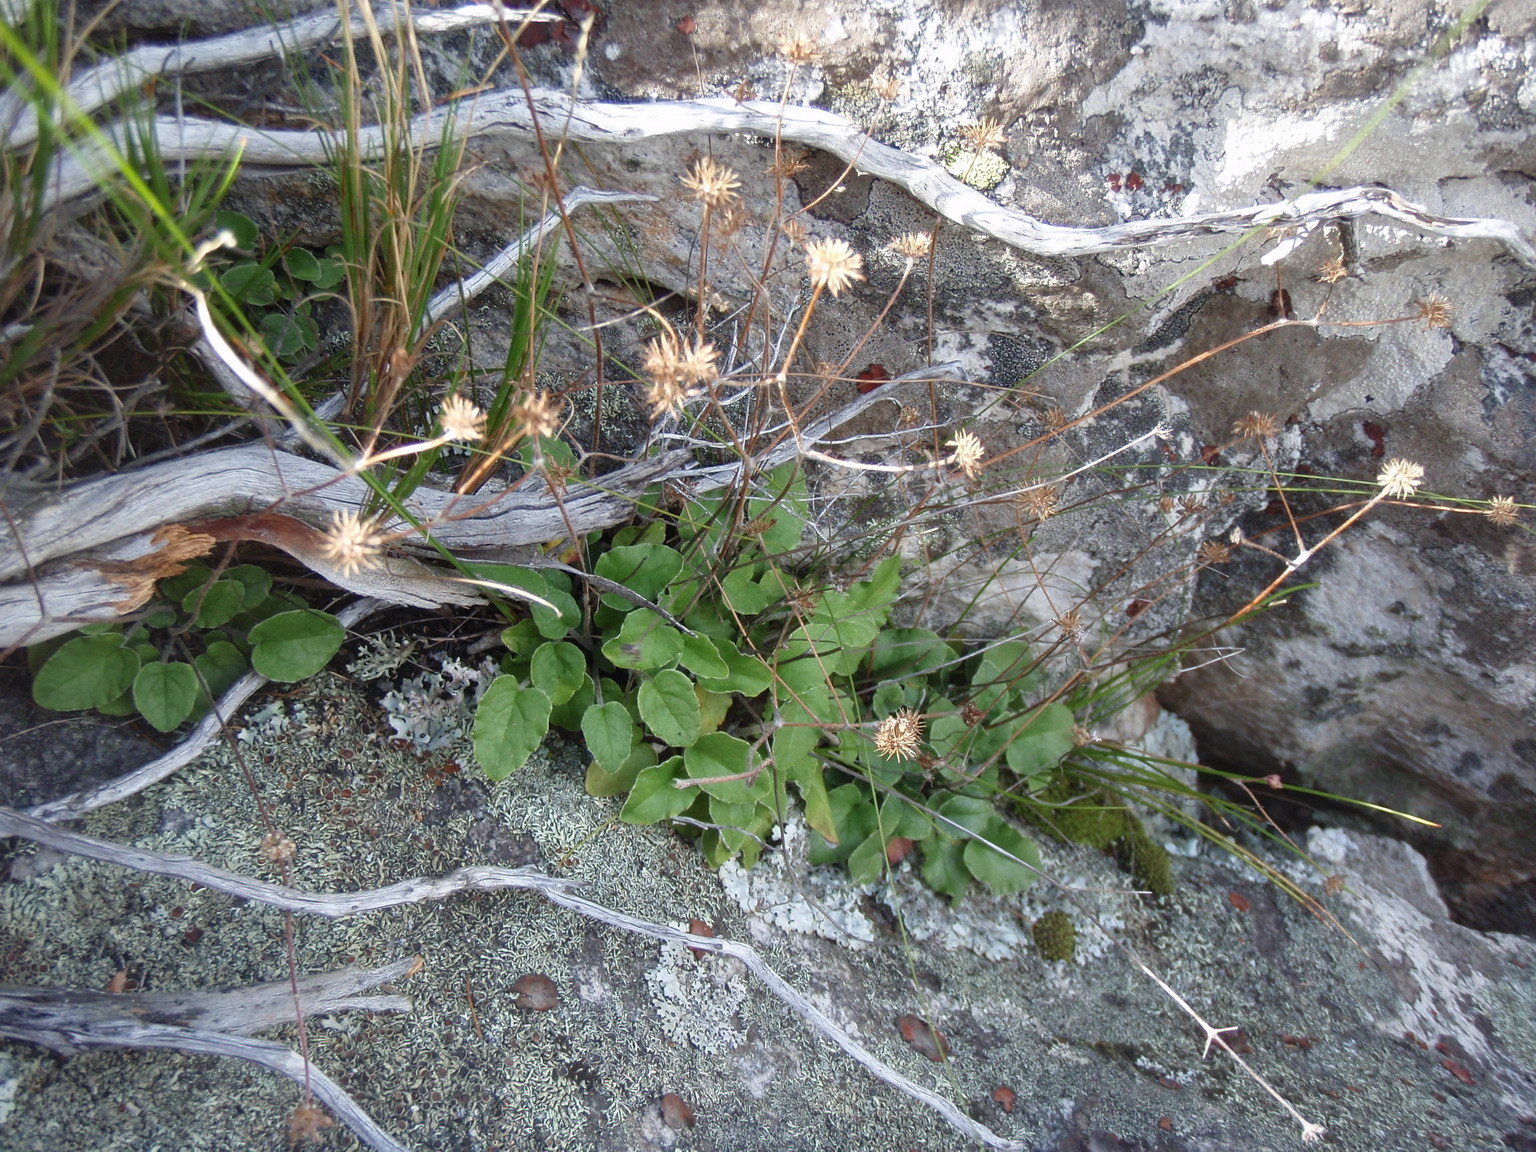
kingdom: Plantae
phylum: Tracheophyta
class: Magnoliopsida
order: Apiales
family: Apiaceae
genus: Hermas
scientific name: Hermas capitata
